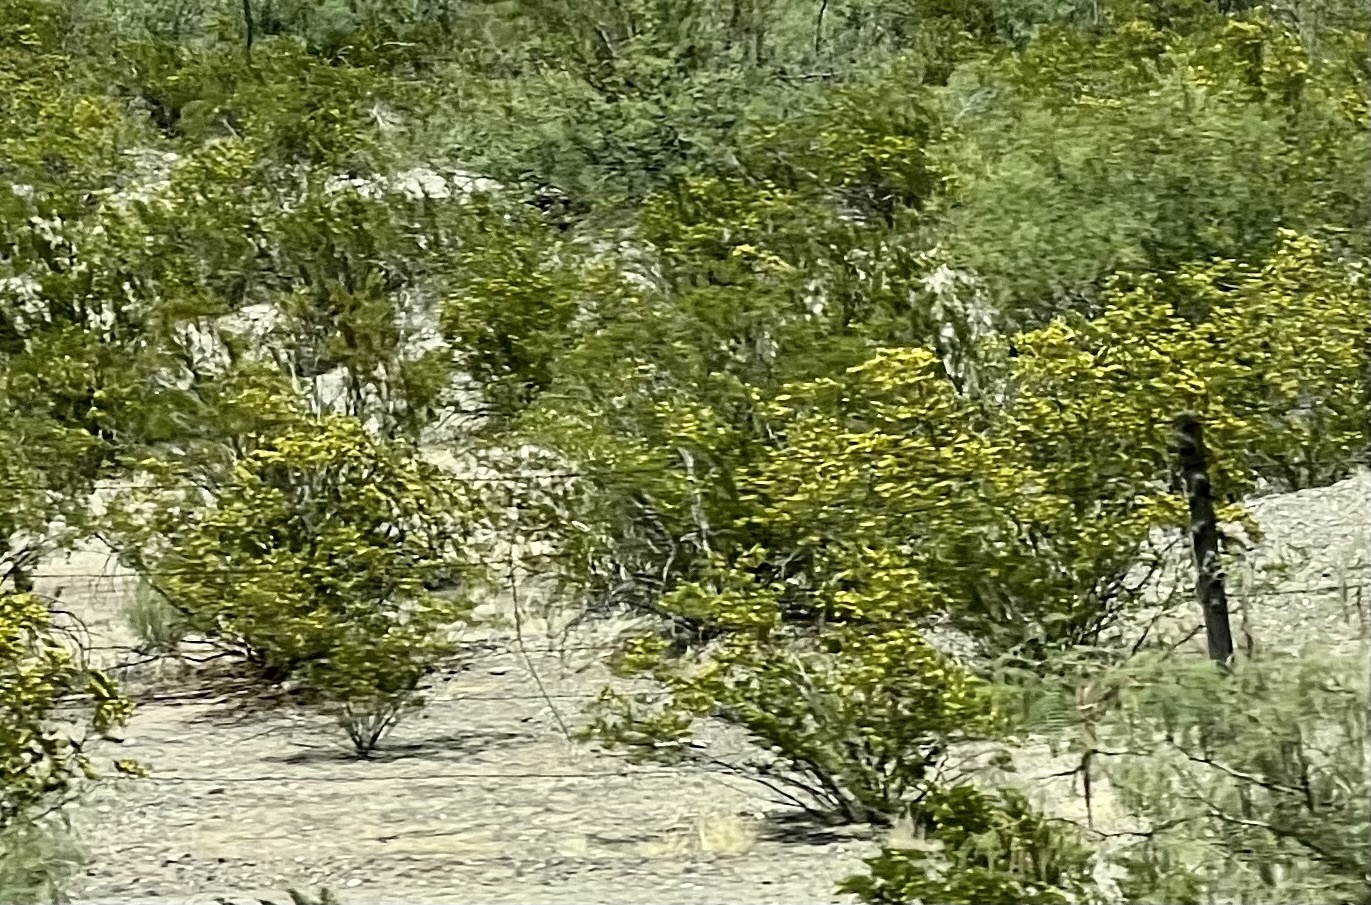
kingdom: Plantae
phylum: Tracheophyta
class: Magnoliopsida
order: Zygophyllales
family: Zygophyllaceae
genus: Larrea
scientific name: Larrea tridentata
